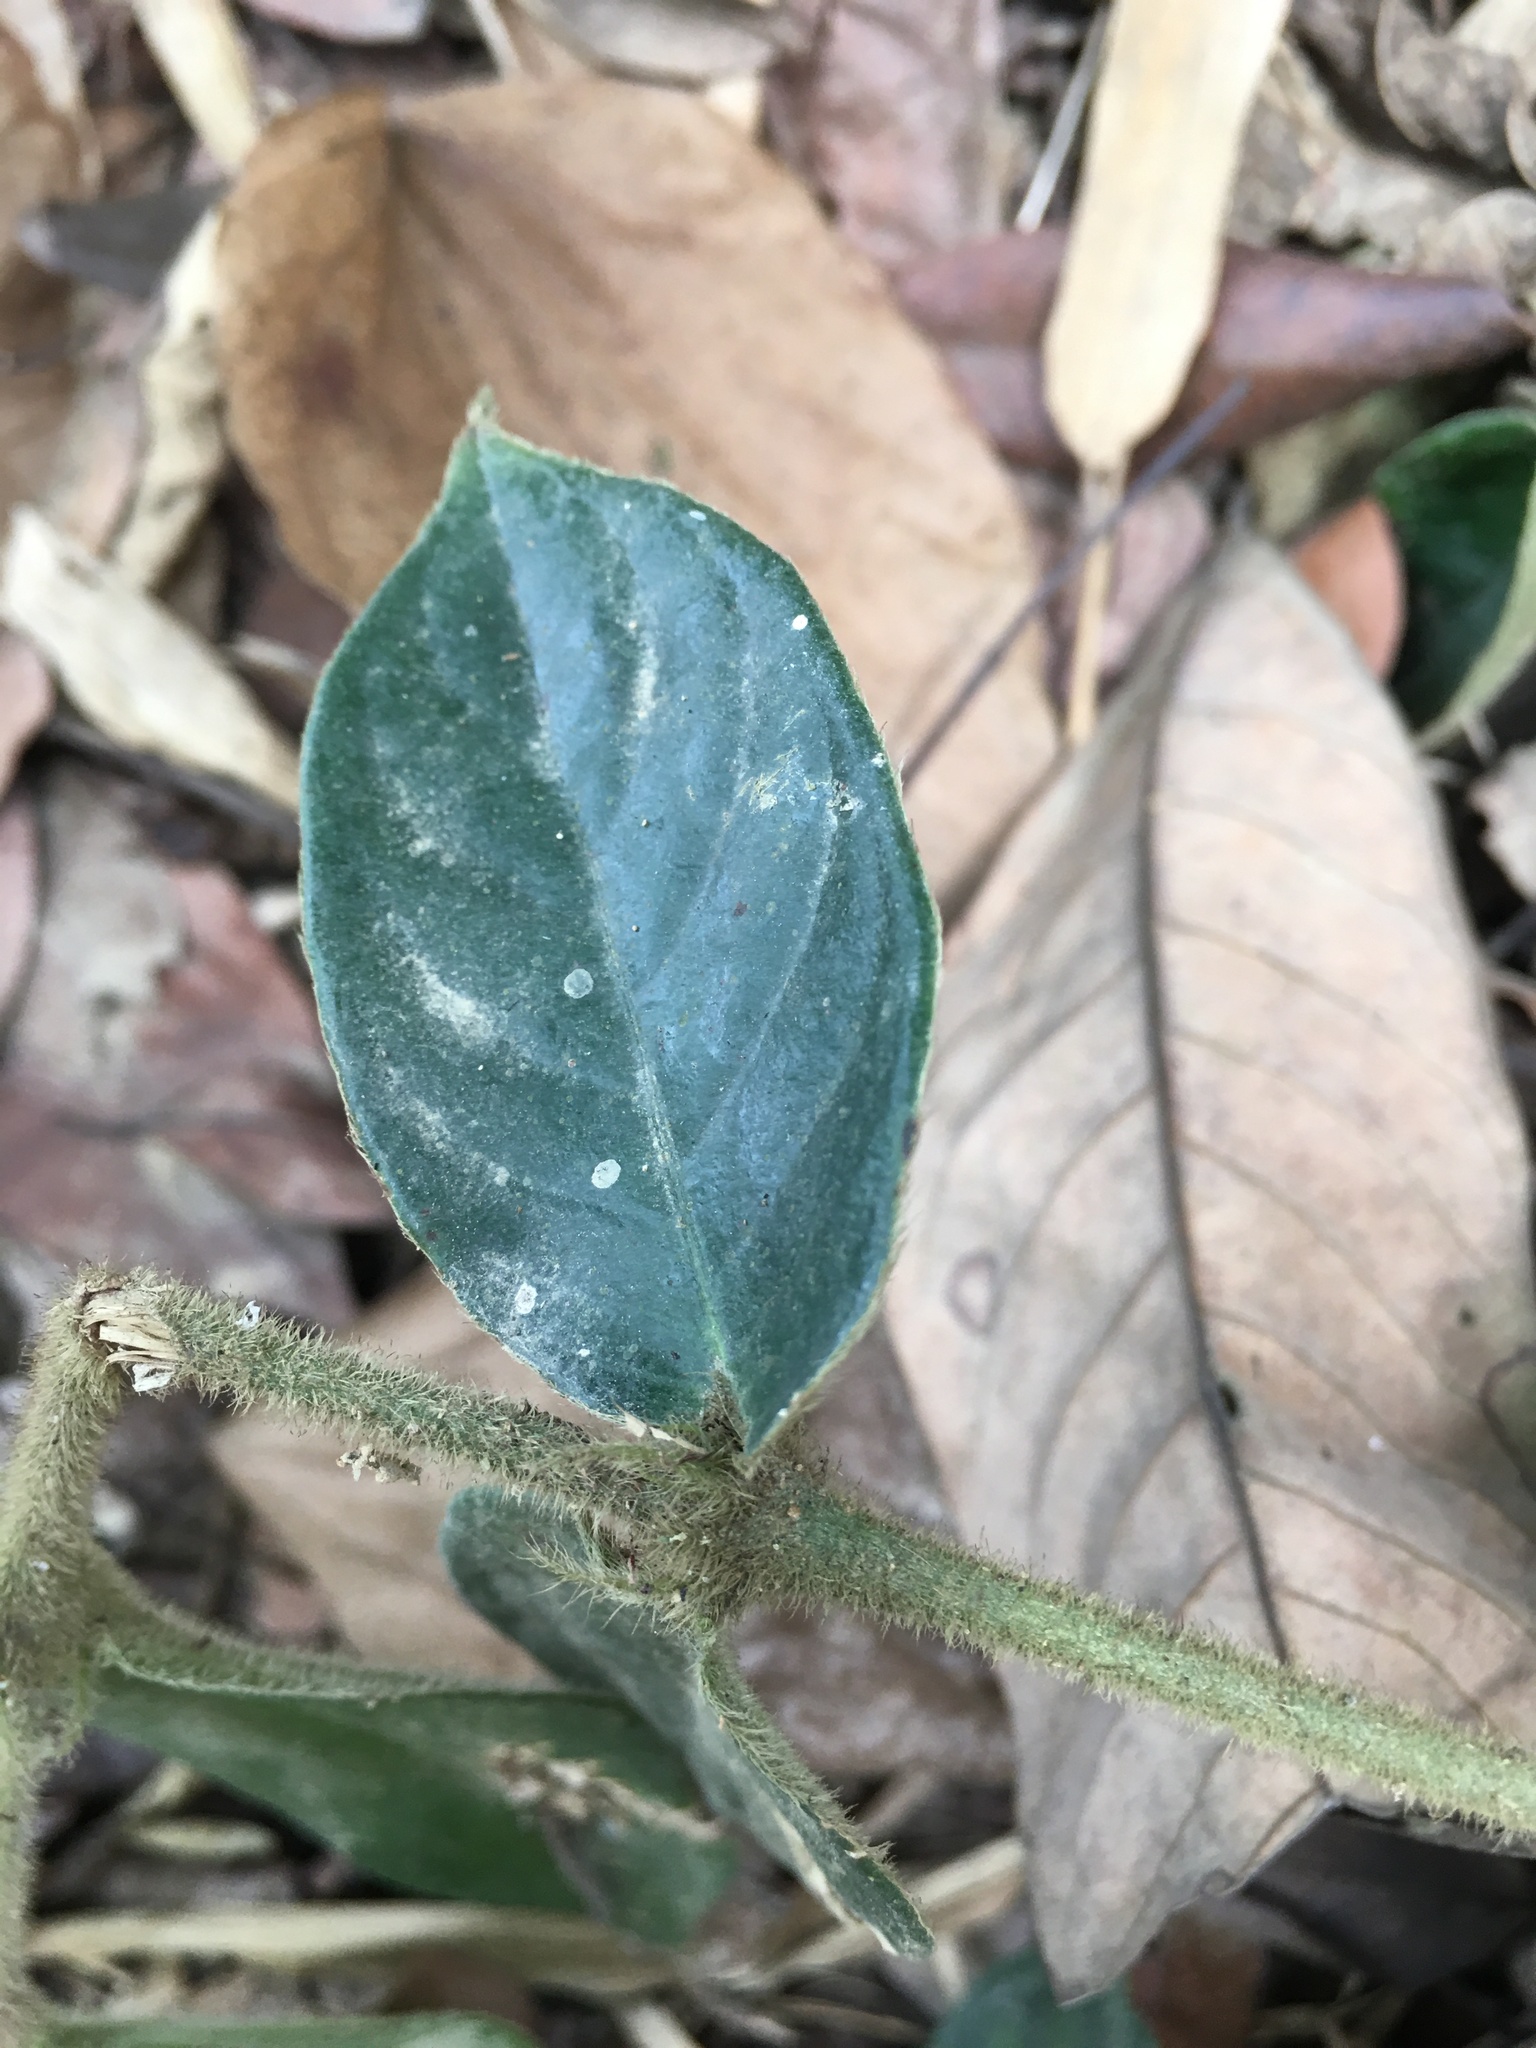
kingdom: Plantae
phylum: Tracheophyta
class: Magnoliopsida
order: Gentianales
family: Rubiaceae
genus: Lasianthus
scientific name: Lasianthus attenuatus
